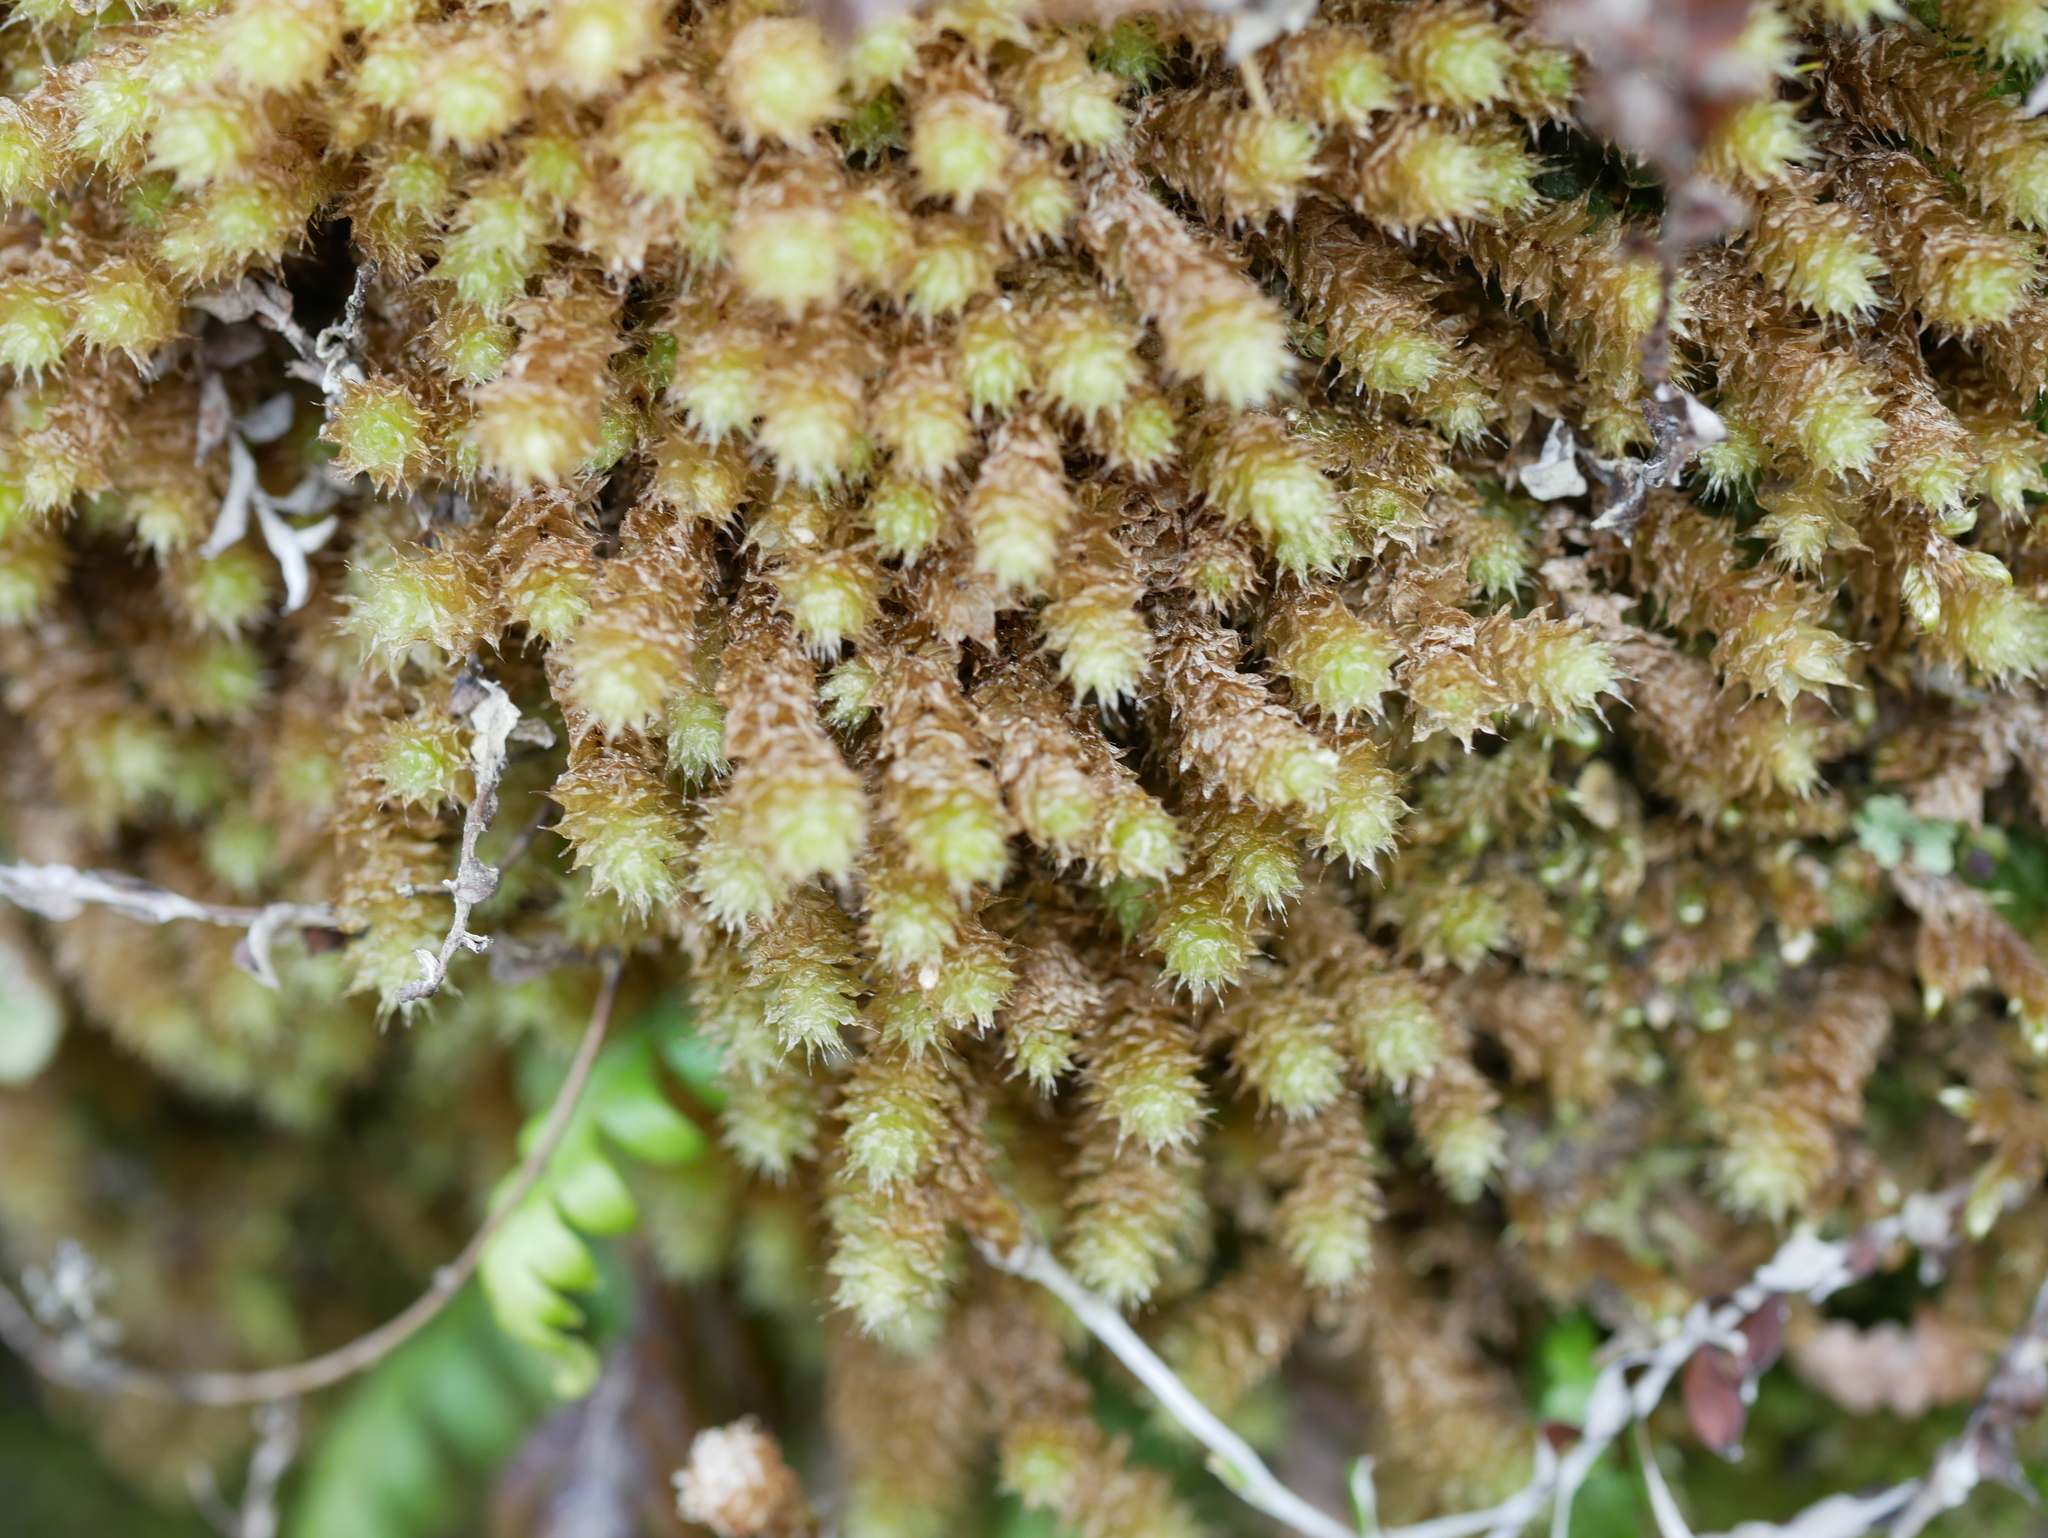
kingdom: Plantae
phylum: Bryophyta
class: Bryopsida
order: Ptychomniales
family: Ptychomniaceae
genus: Ptychomnion
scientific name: Ptychomnion aciculare
